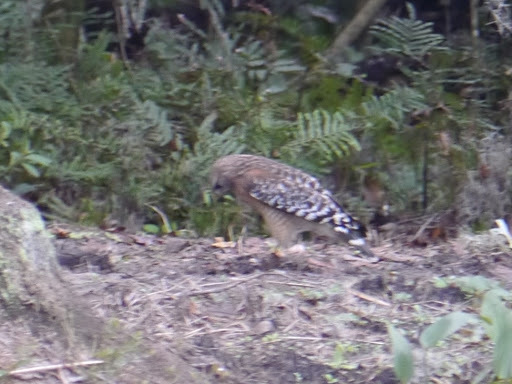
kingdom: Animalia
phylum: Chordata
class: Aves
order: Accipitriformes
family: Accipitridae
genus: Buteo
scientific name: Buteo lineatus
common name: Red-shouldered hawk
